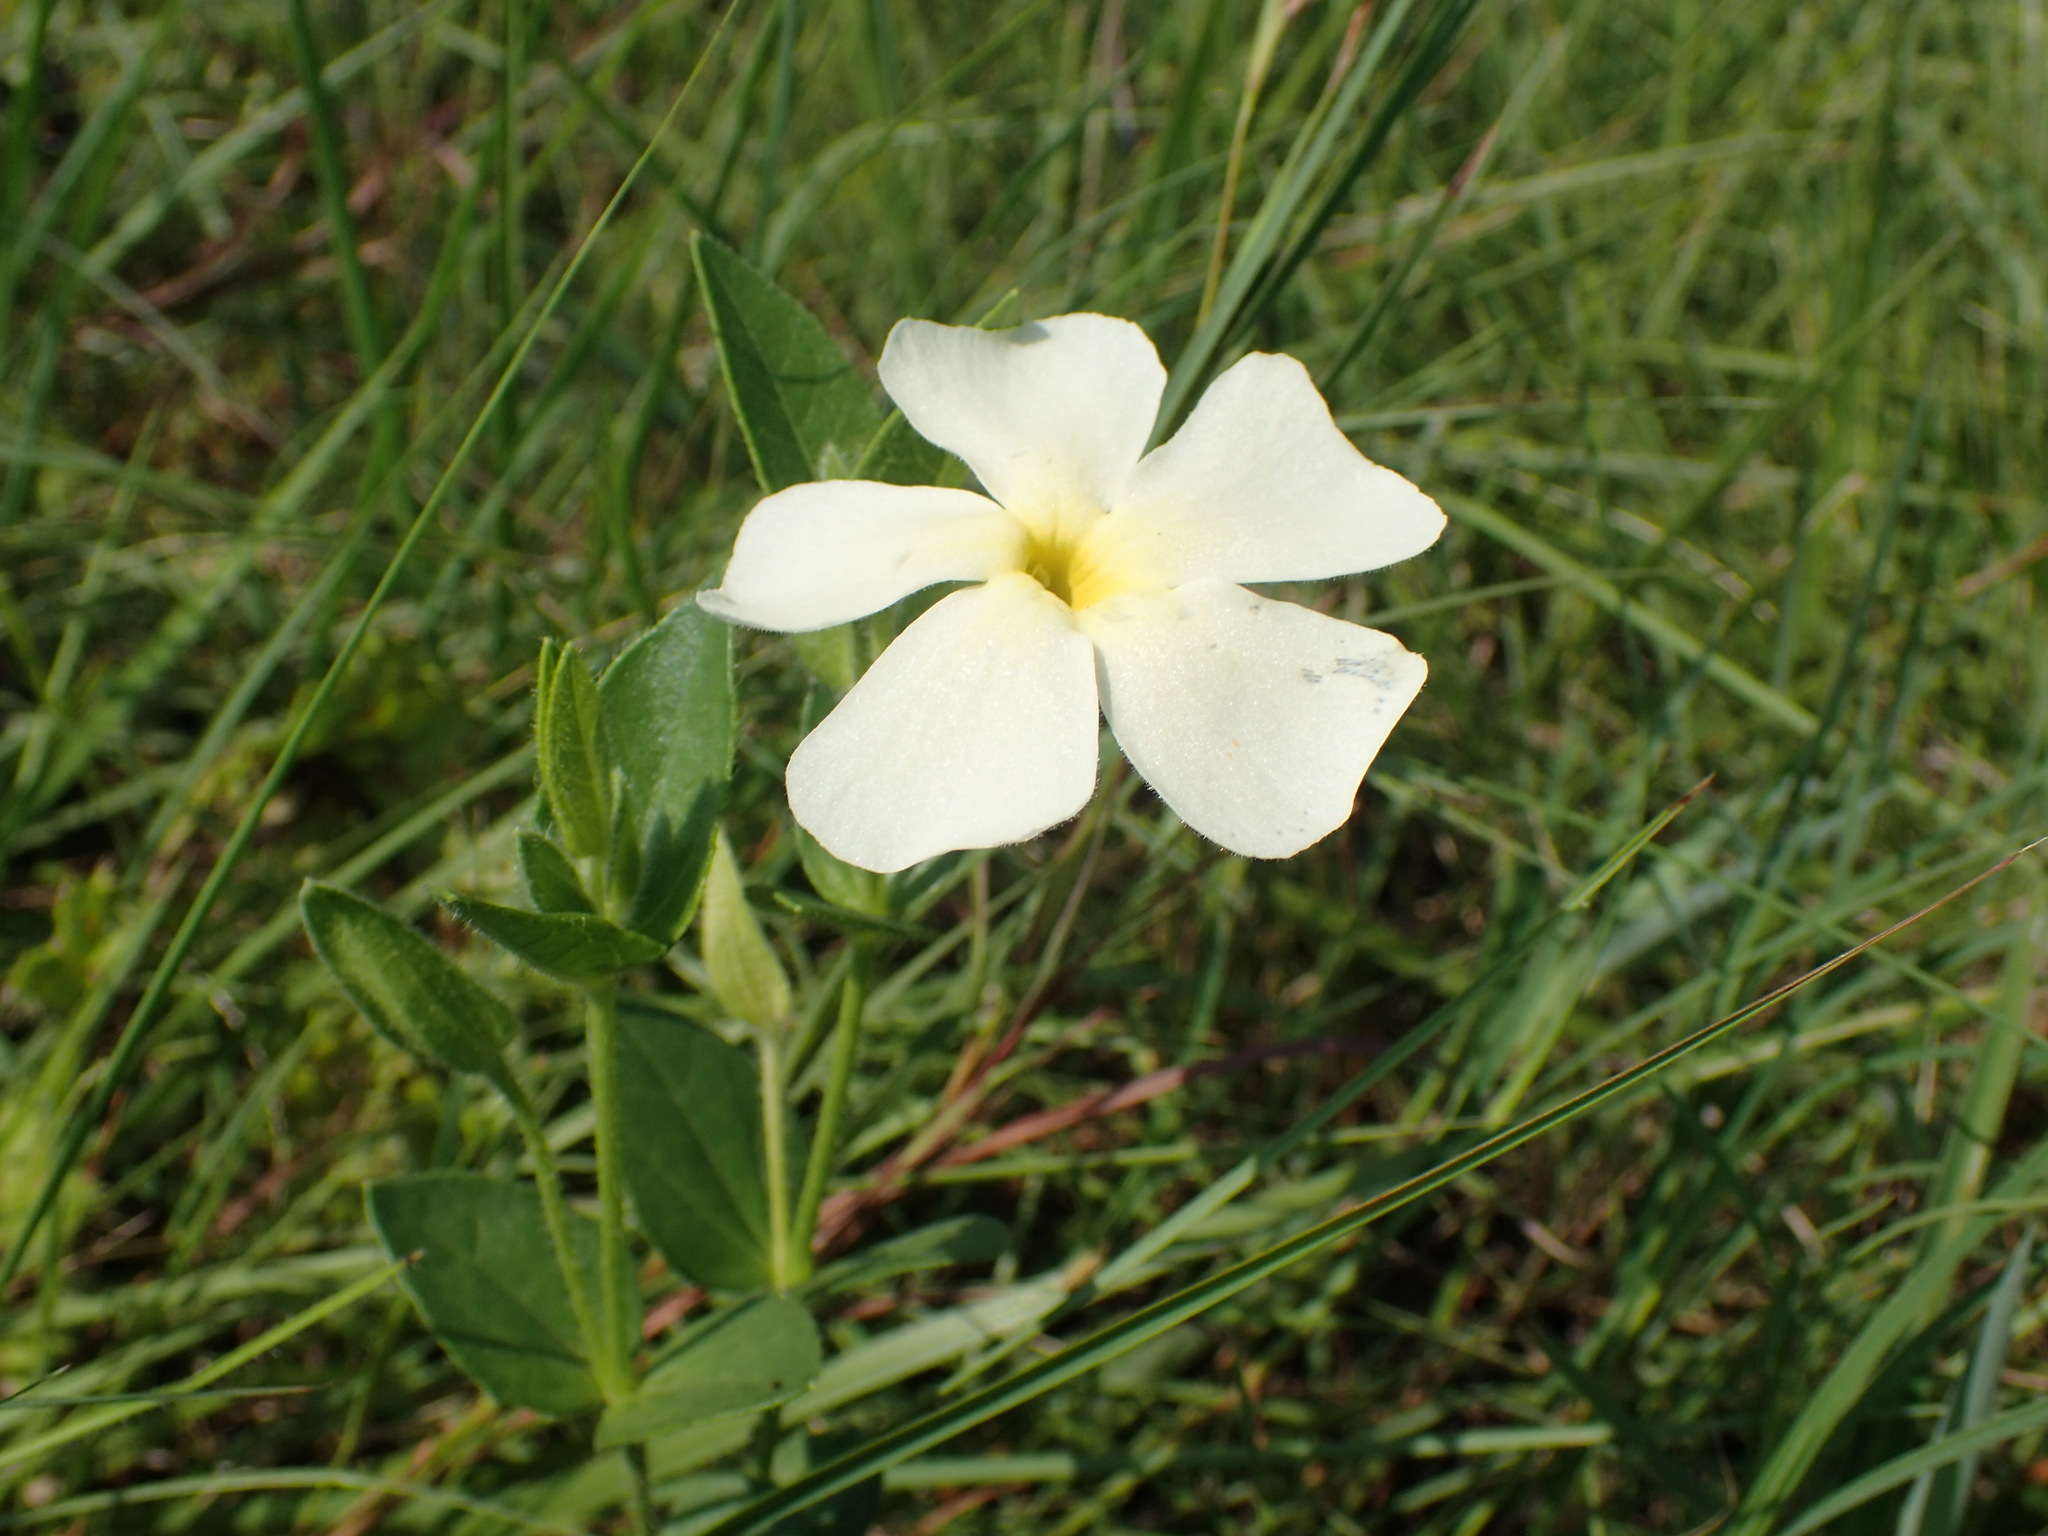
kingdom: Plantae
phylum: Tracheophyta
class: Magnoliopsida
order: Lamiales
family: Acanthaceae
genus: Thunbergia
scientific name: Thunbergia atriplicifolia
